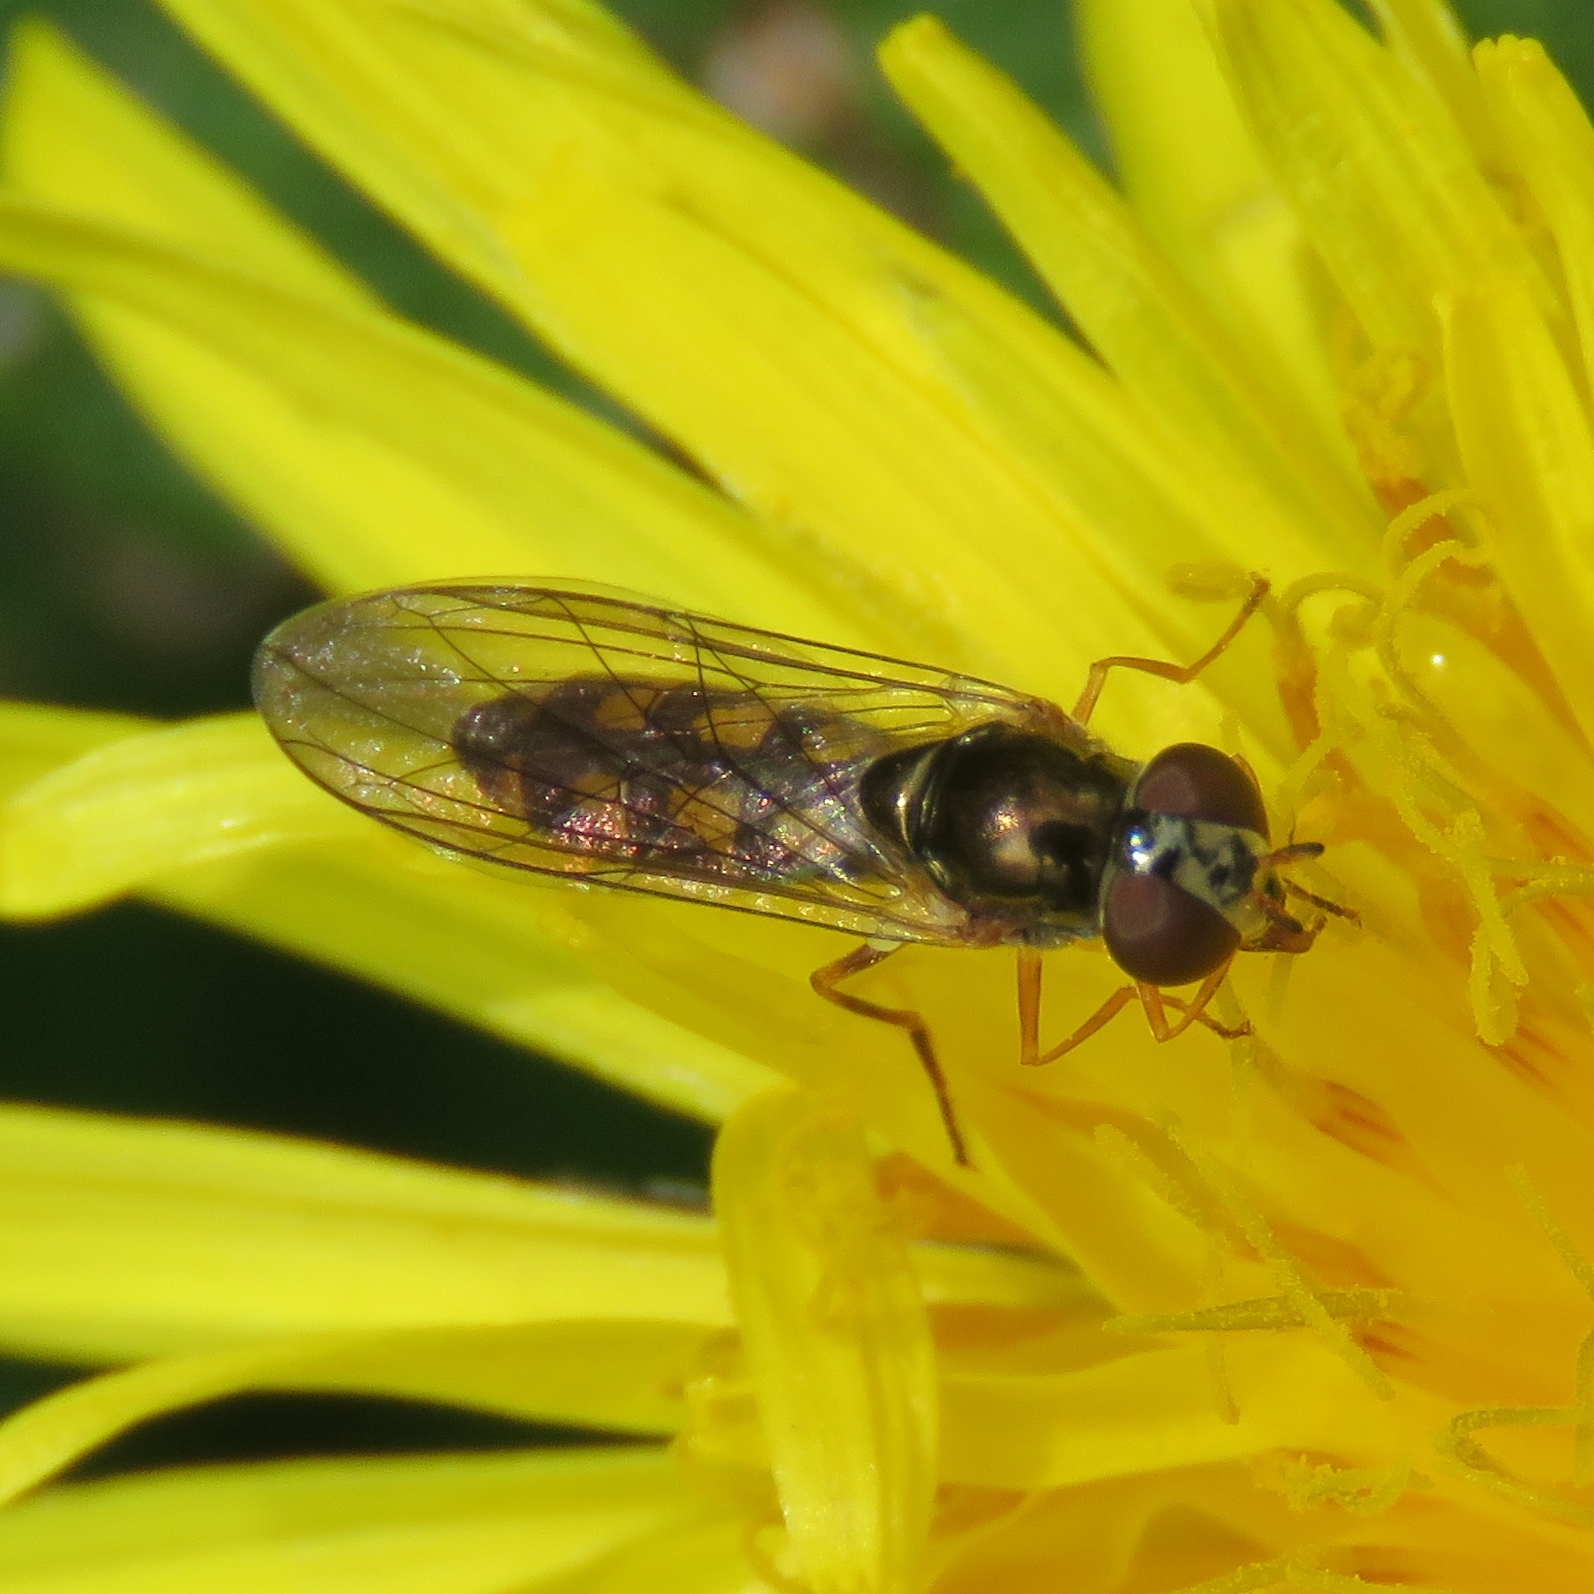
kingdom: Animalia
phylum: Arthropoda
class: Insecta
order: Diptera
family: Syrphidae
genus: Melanostoma
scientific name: Melanostoma scalare
